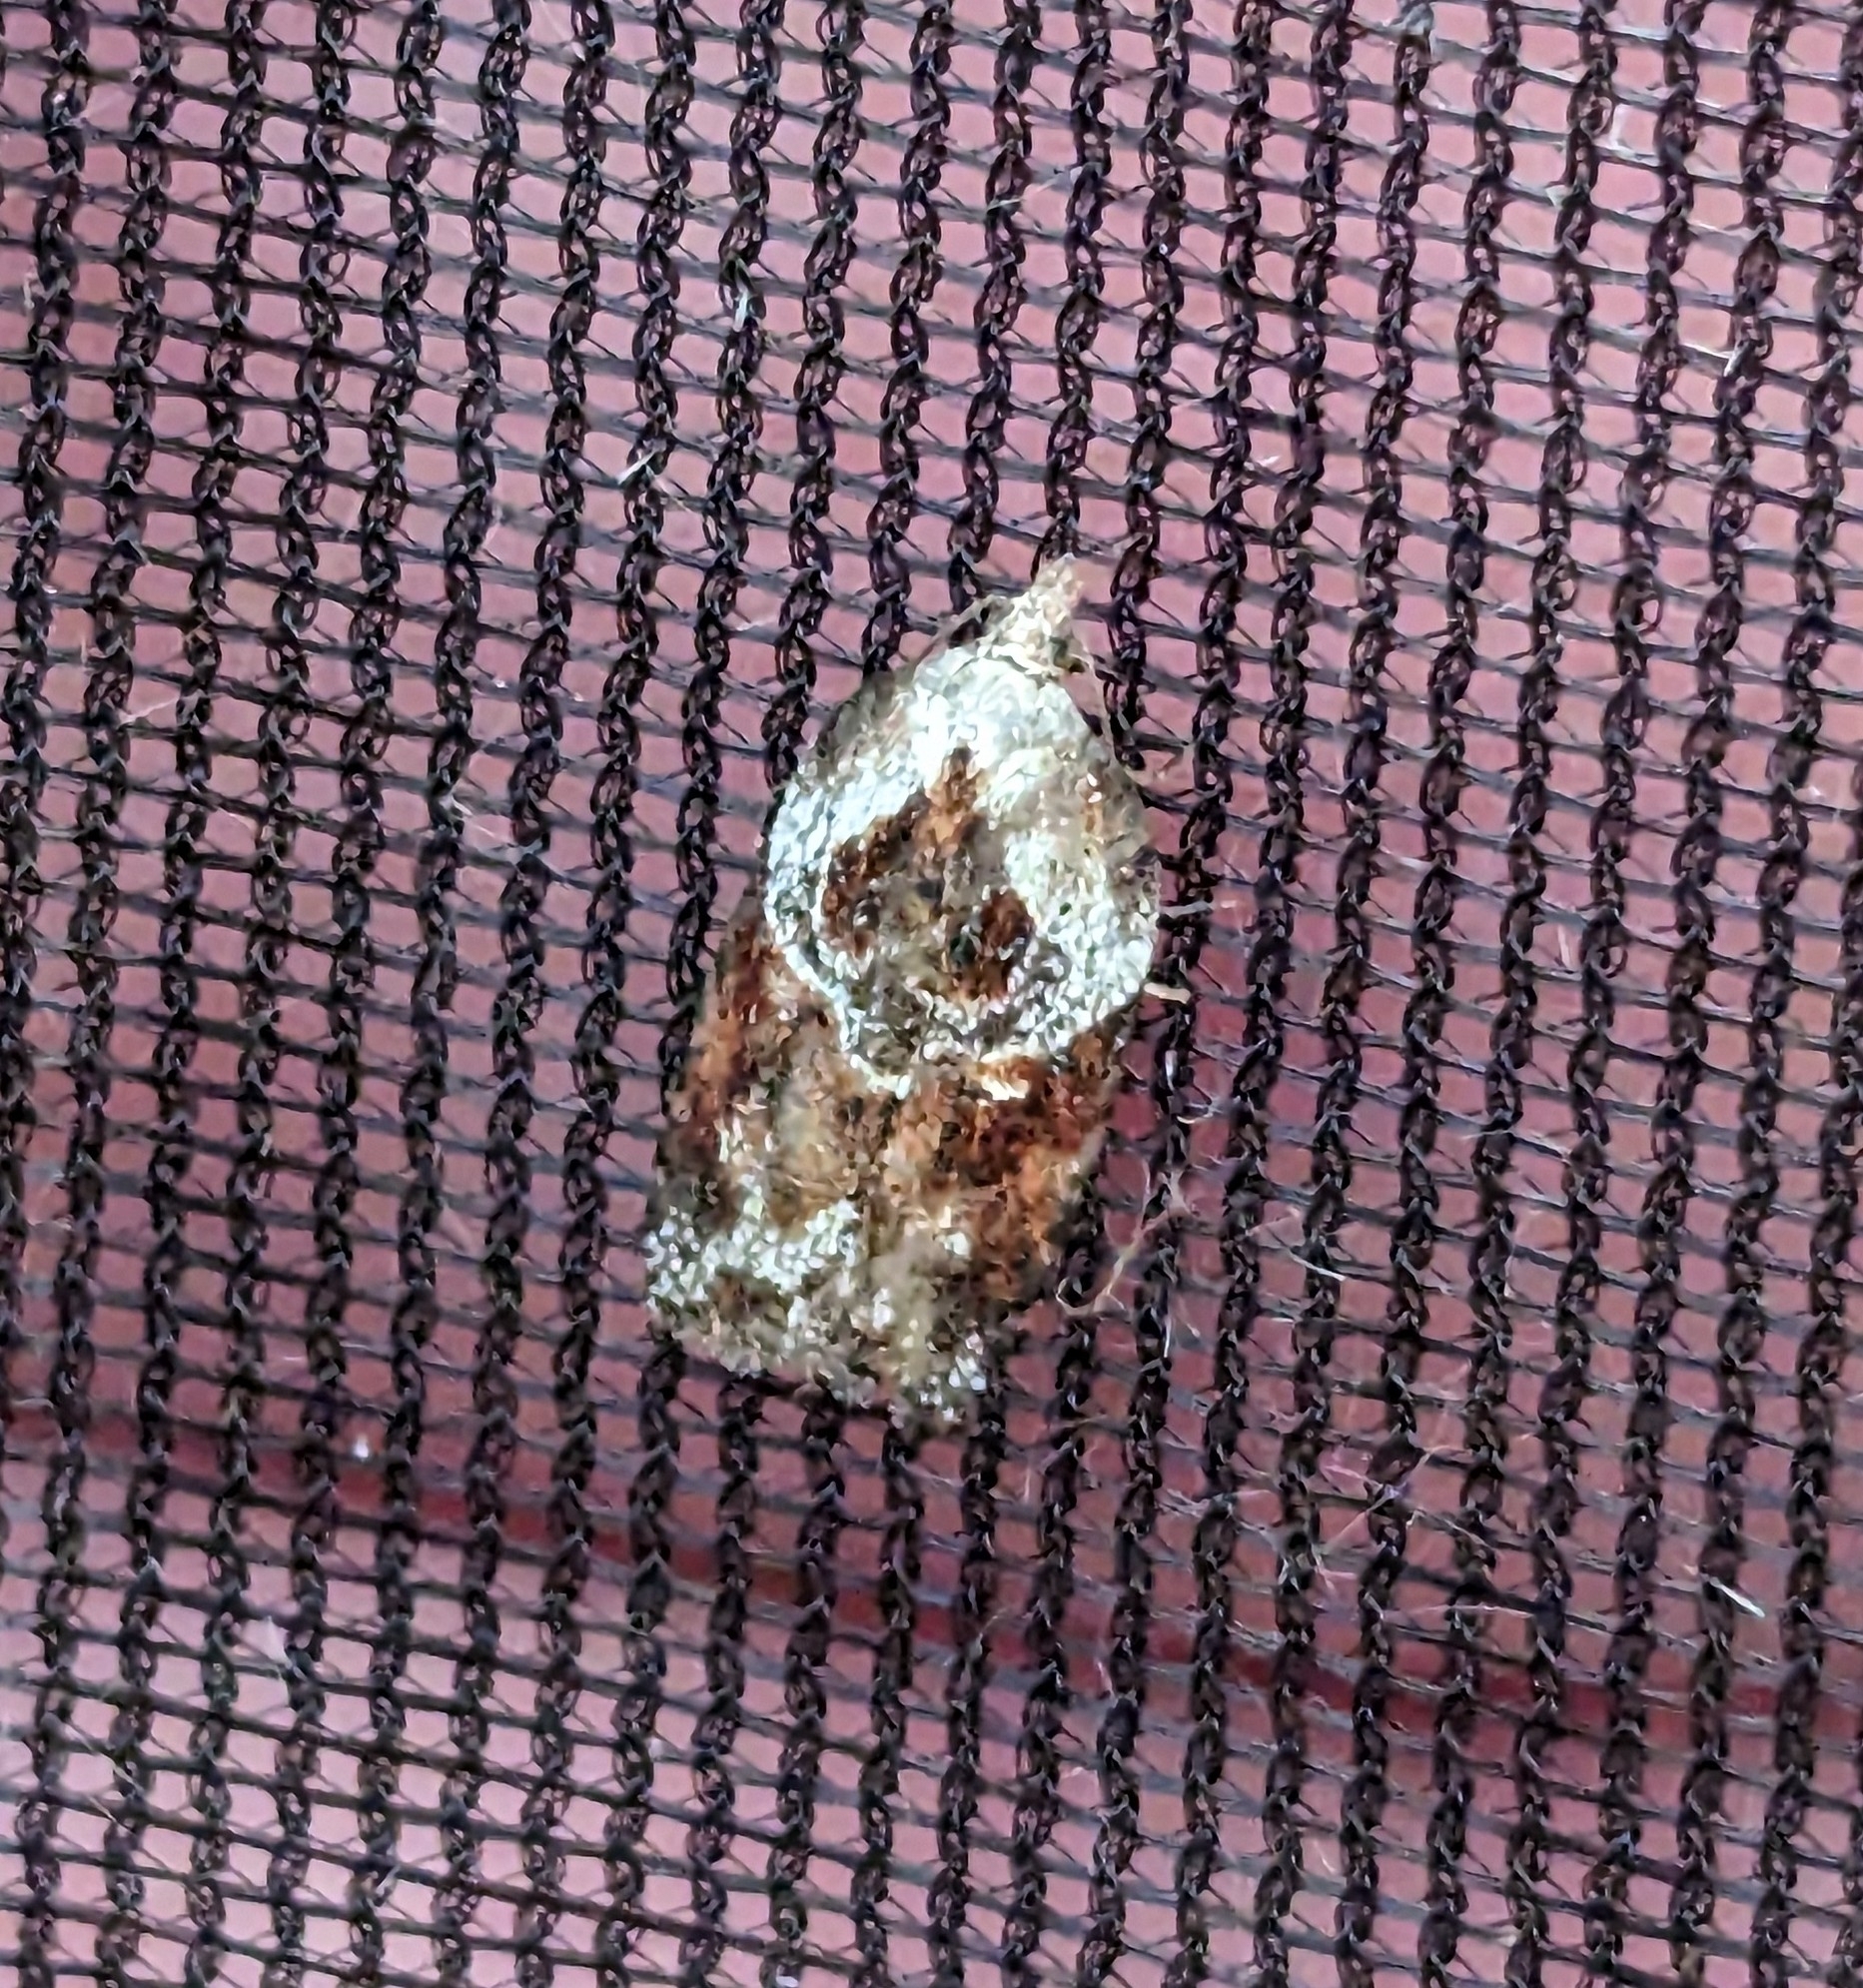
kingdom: Animalia
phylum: Arthropoda
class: Insecta
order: Lepidoptera
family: Tortricidae
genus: Acleris
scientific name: Acleris robinsoniana
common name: Robinson's acleris moth
